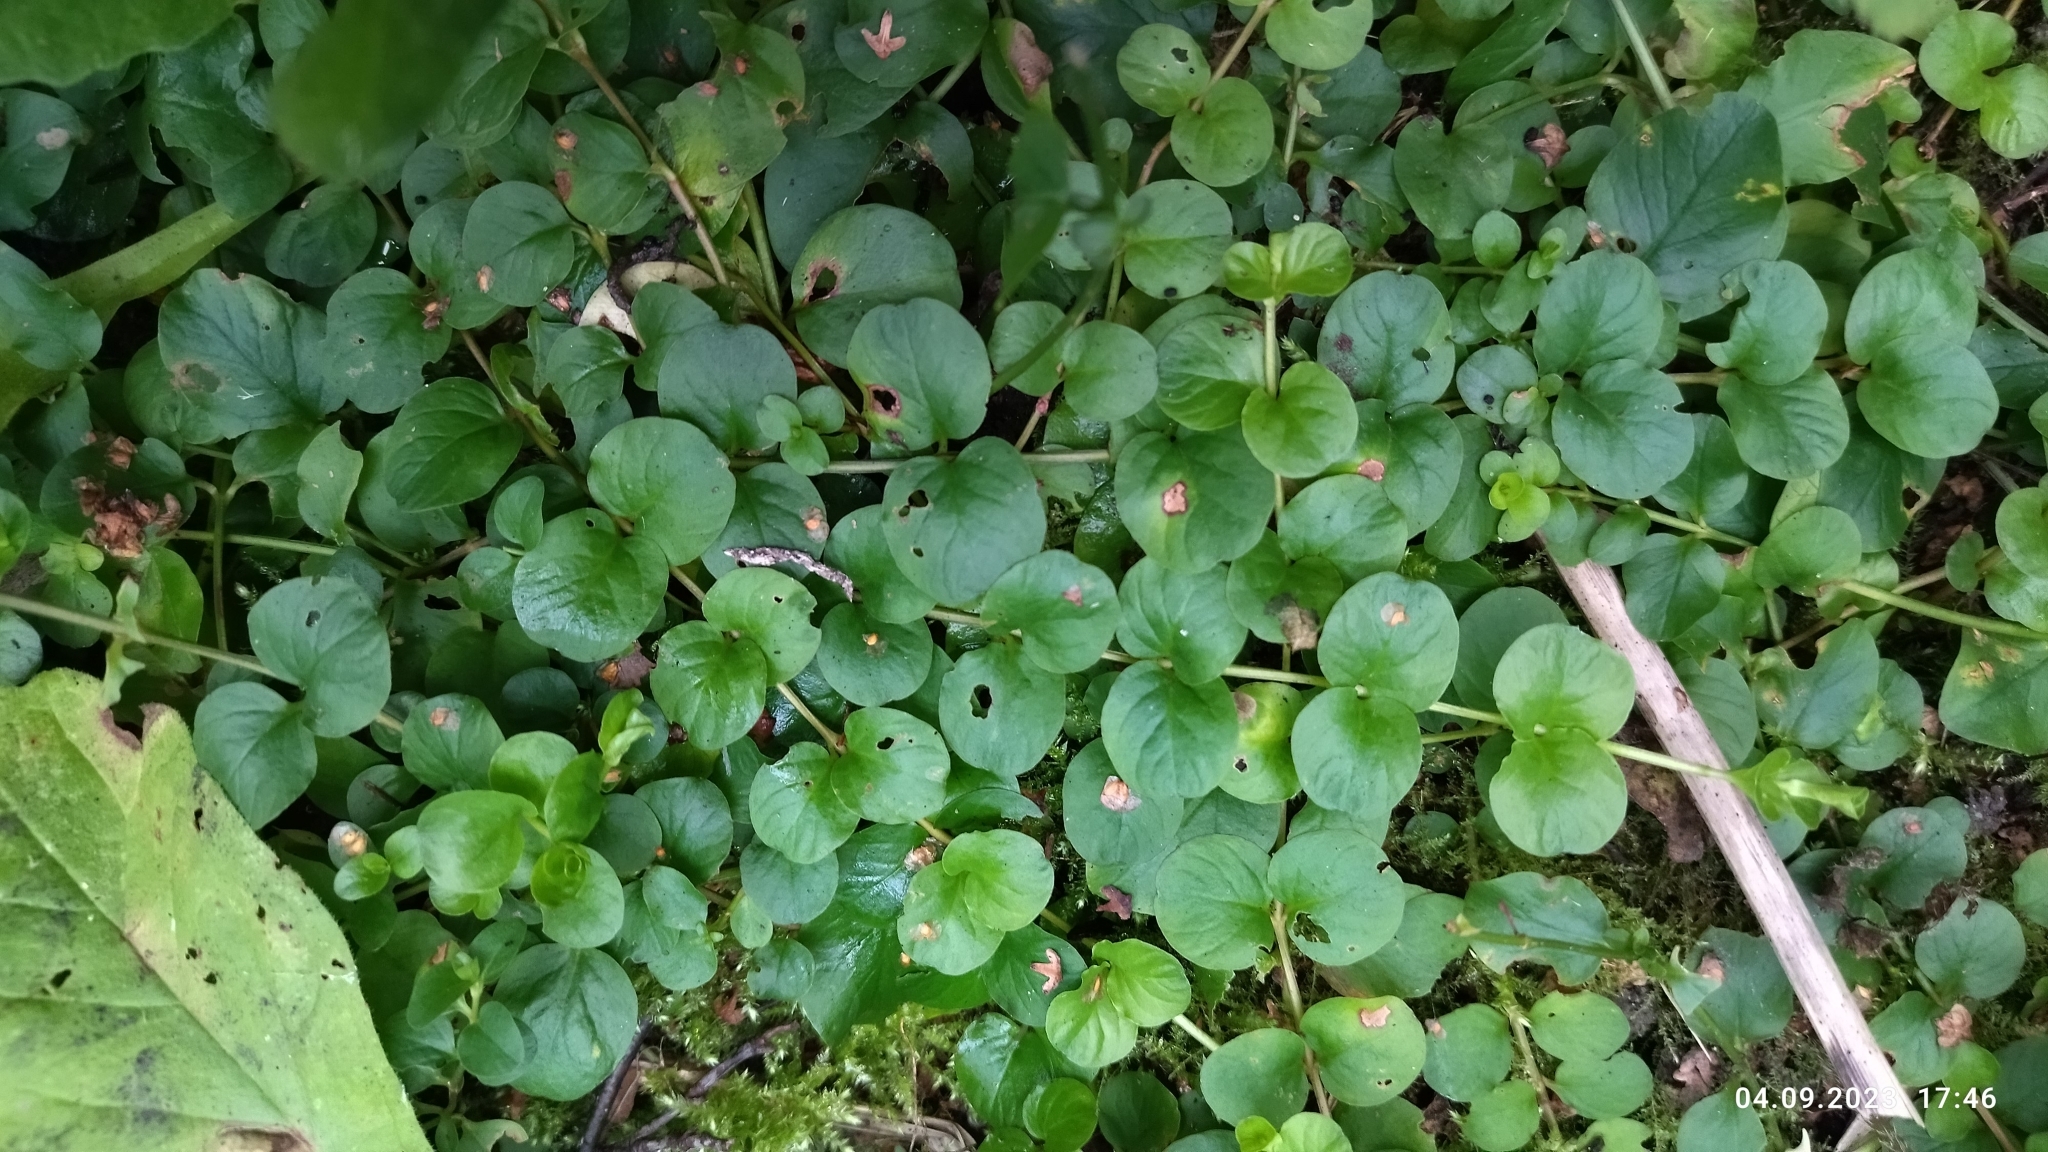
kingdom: Plantae
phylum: Tracheophyta
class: Magnoliopsida
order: Ericales
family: Primulaceae
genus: Lysimachia
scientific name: Lysimachia nummularia
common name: Moneywort
